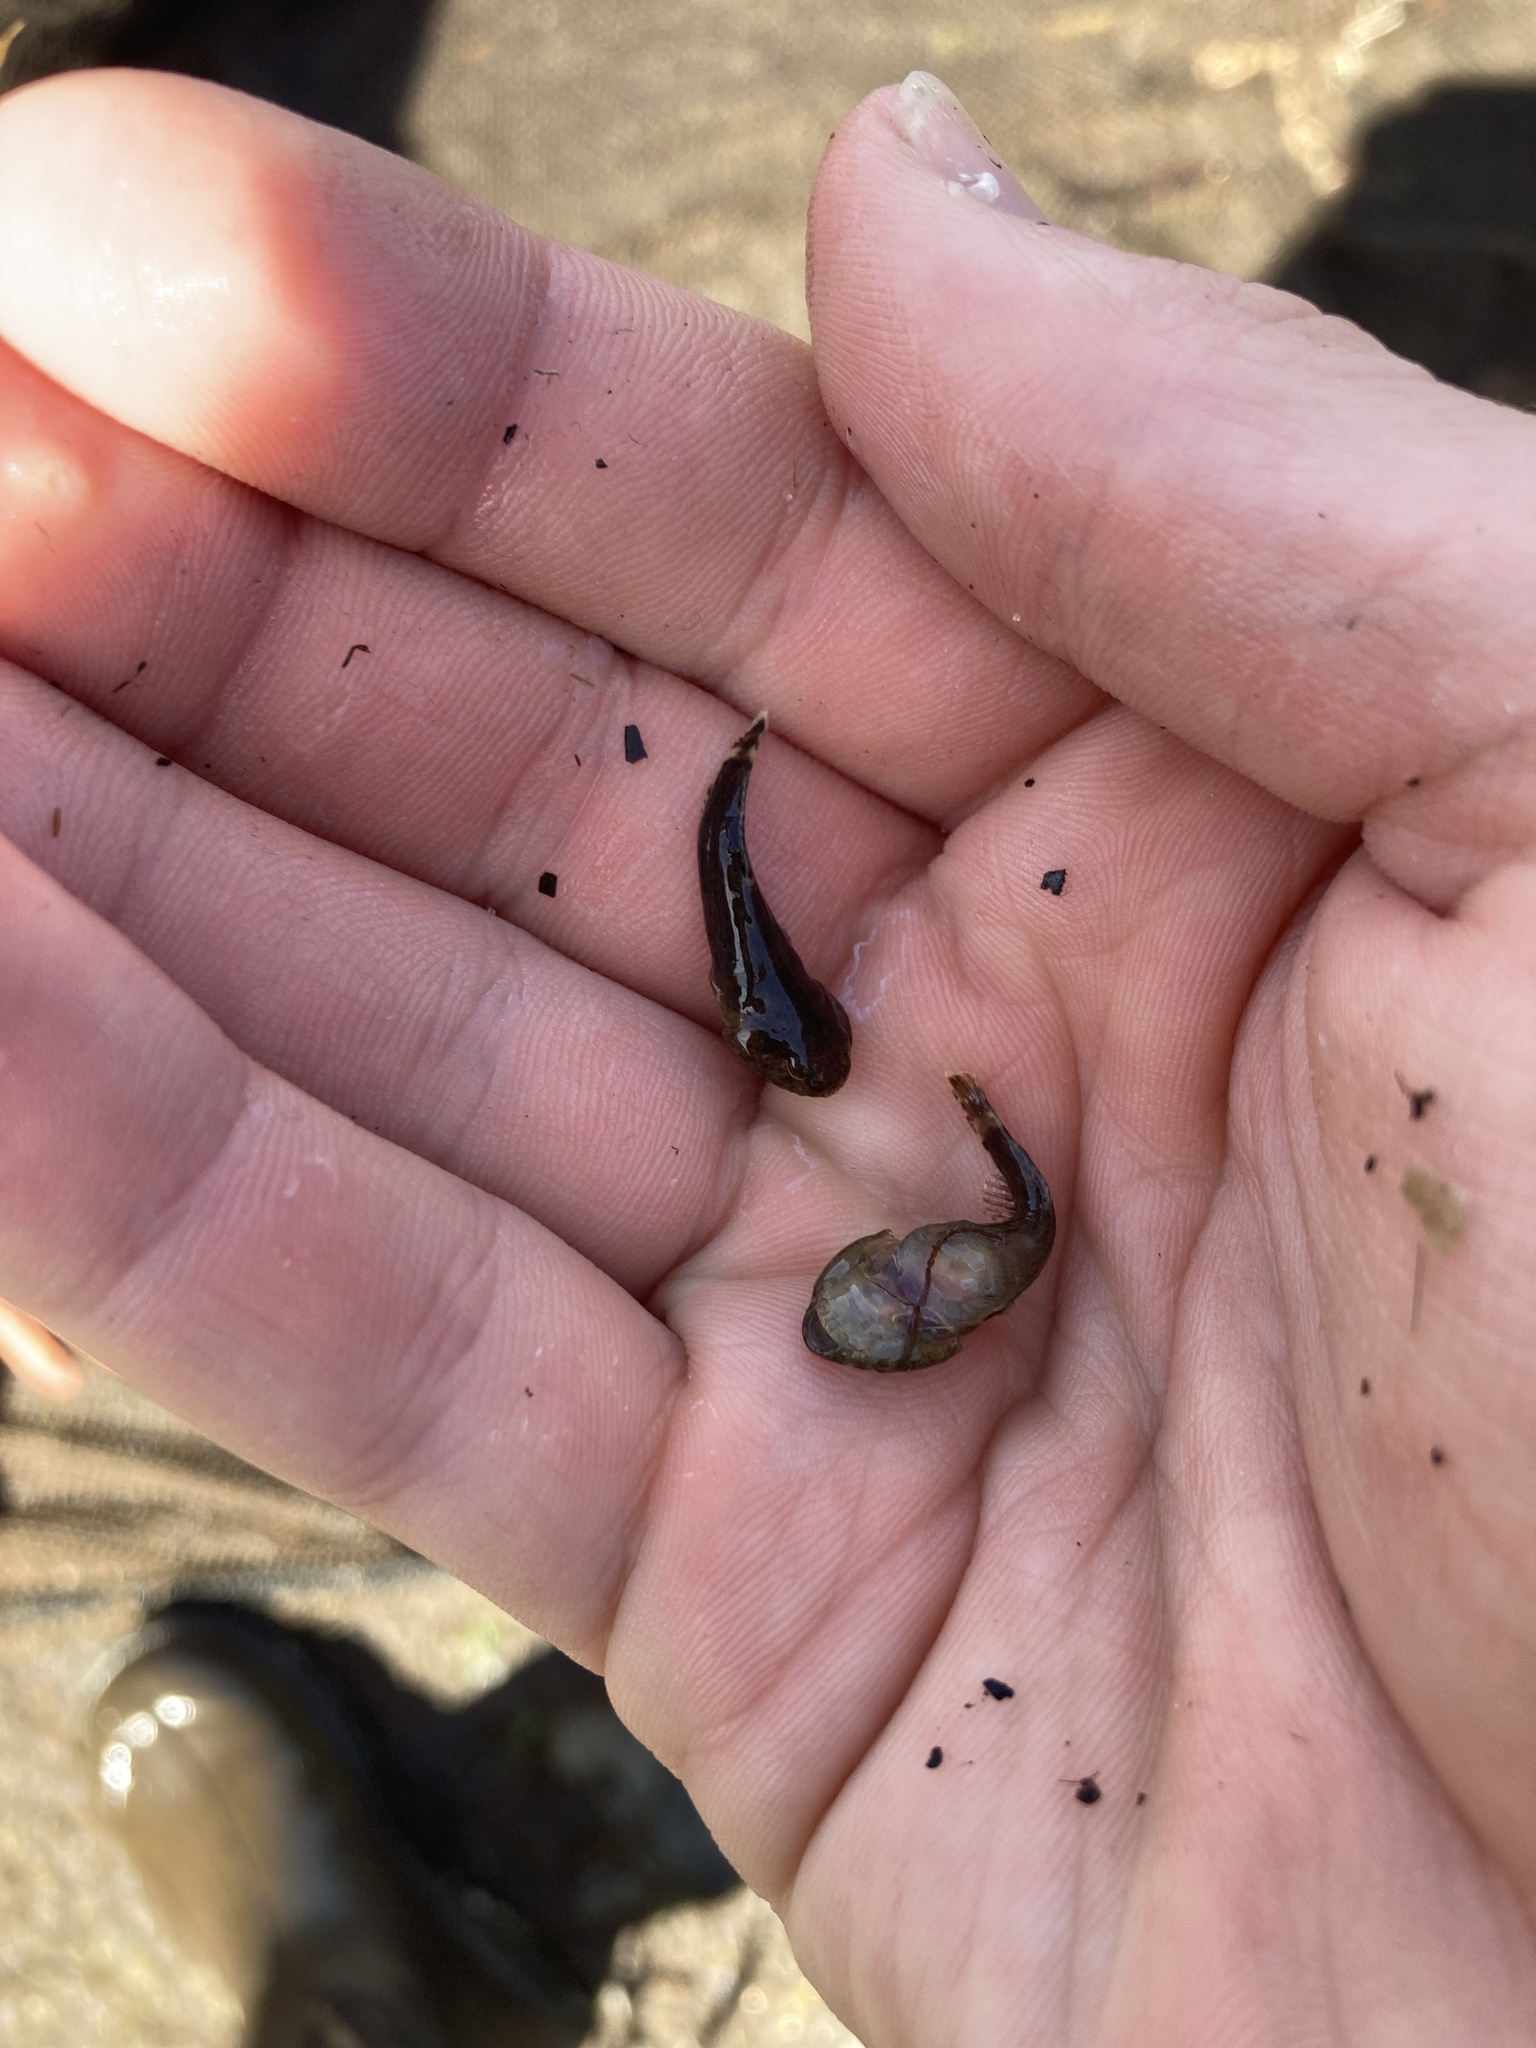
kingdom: Animalia
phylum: Chordata
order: Gobiesociformes
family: Gobiesocidae
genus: Gobiesox
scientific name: Gobiesox strumosus
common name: Skilletfish
